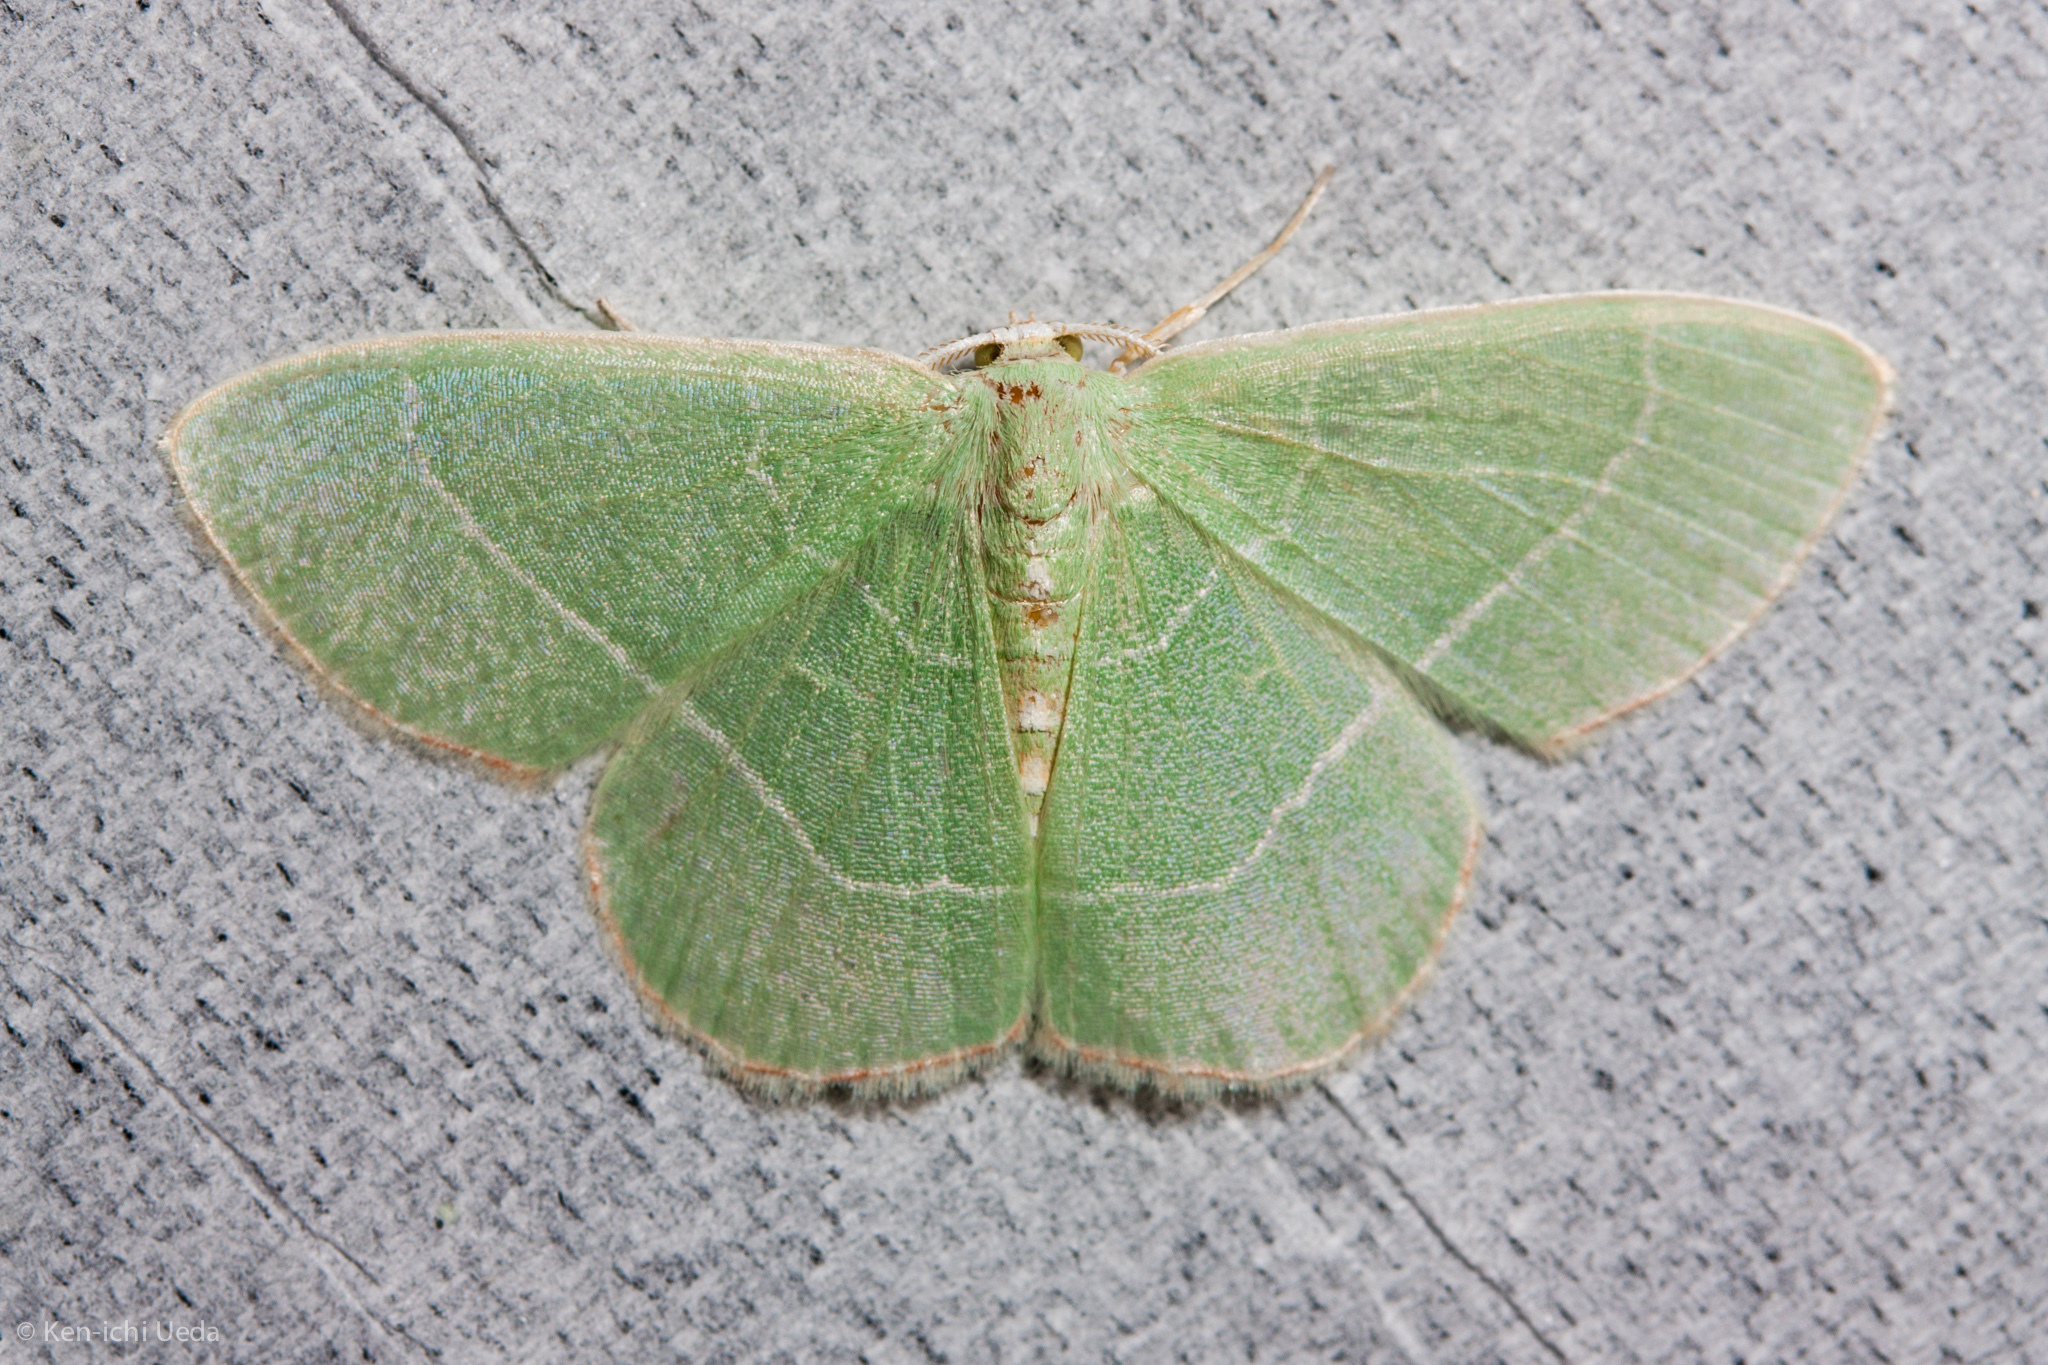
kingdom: Animalia
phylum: Arthropoda
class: Insecta
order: Lepidoptera
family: Geometridae
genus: Nemoria
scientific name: Nemoria bistriaria
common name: Red-fringed emerald
